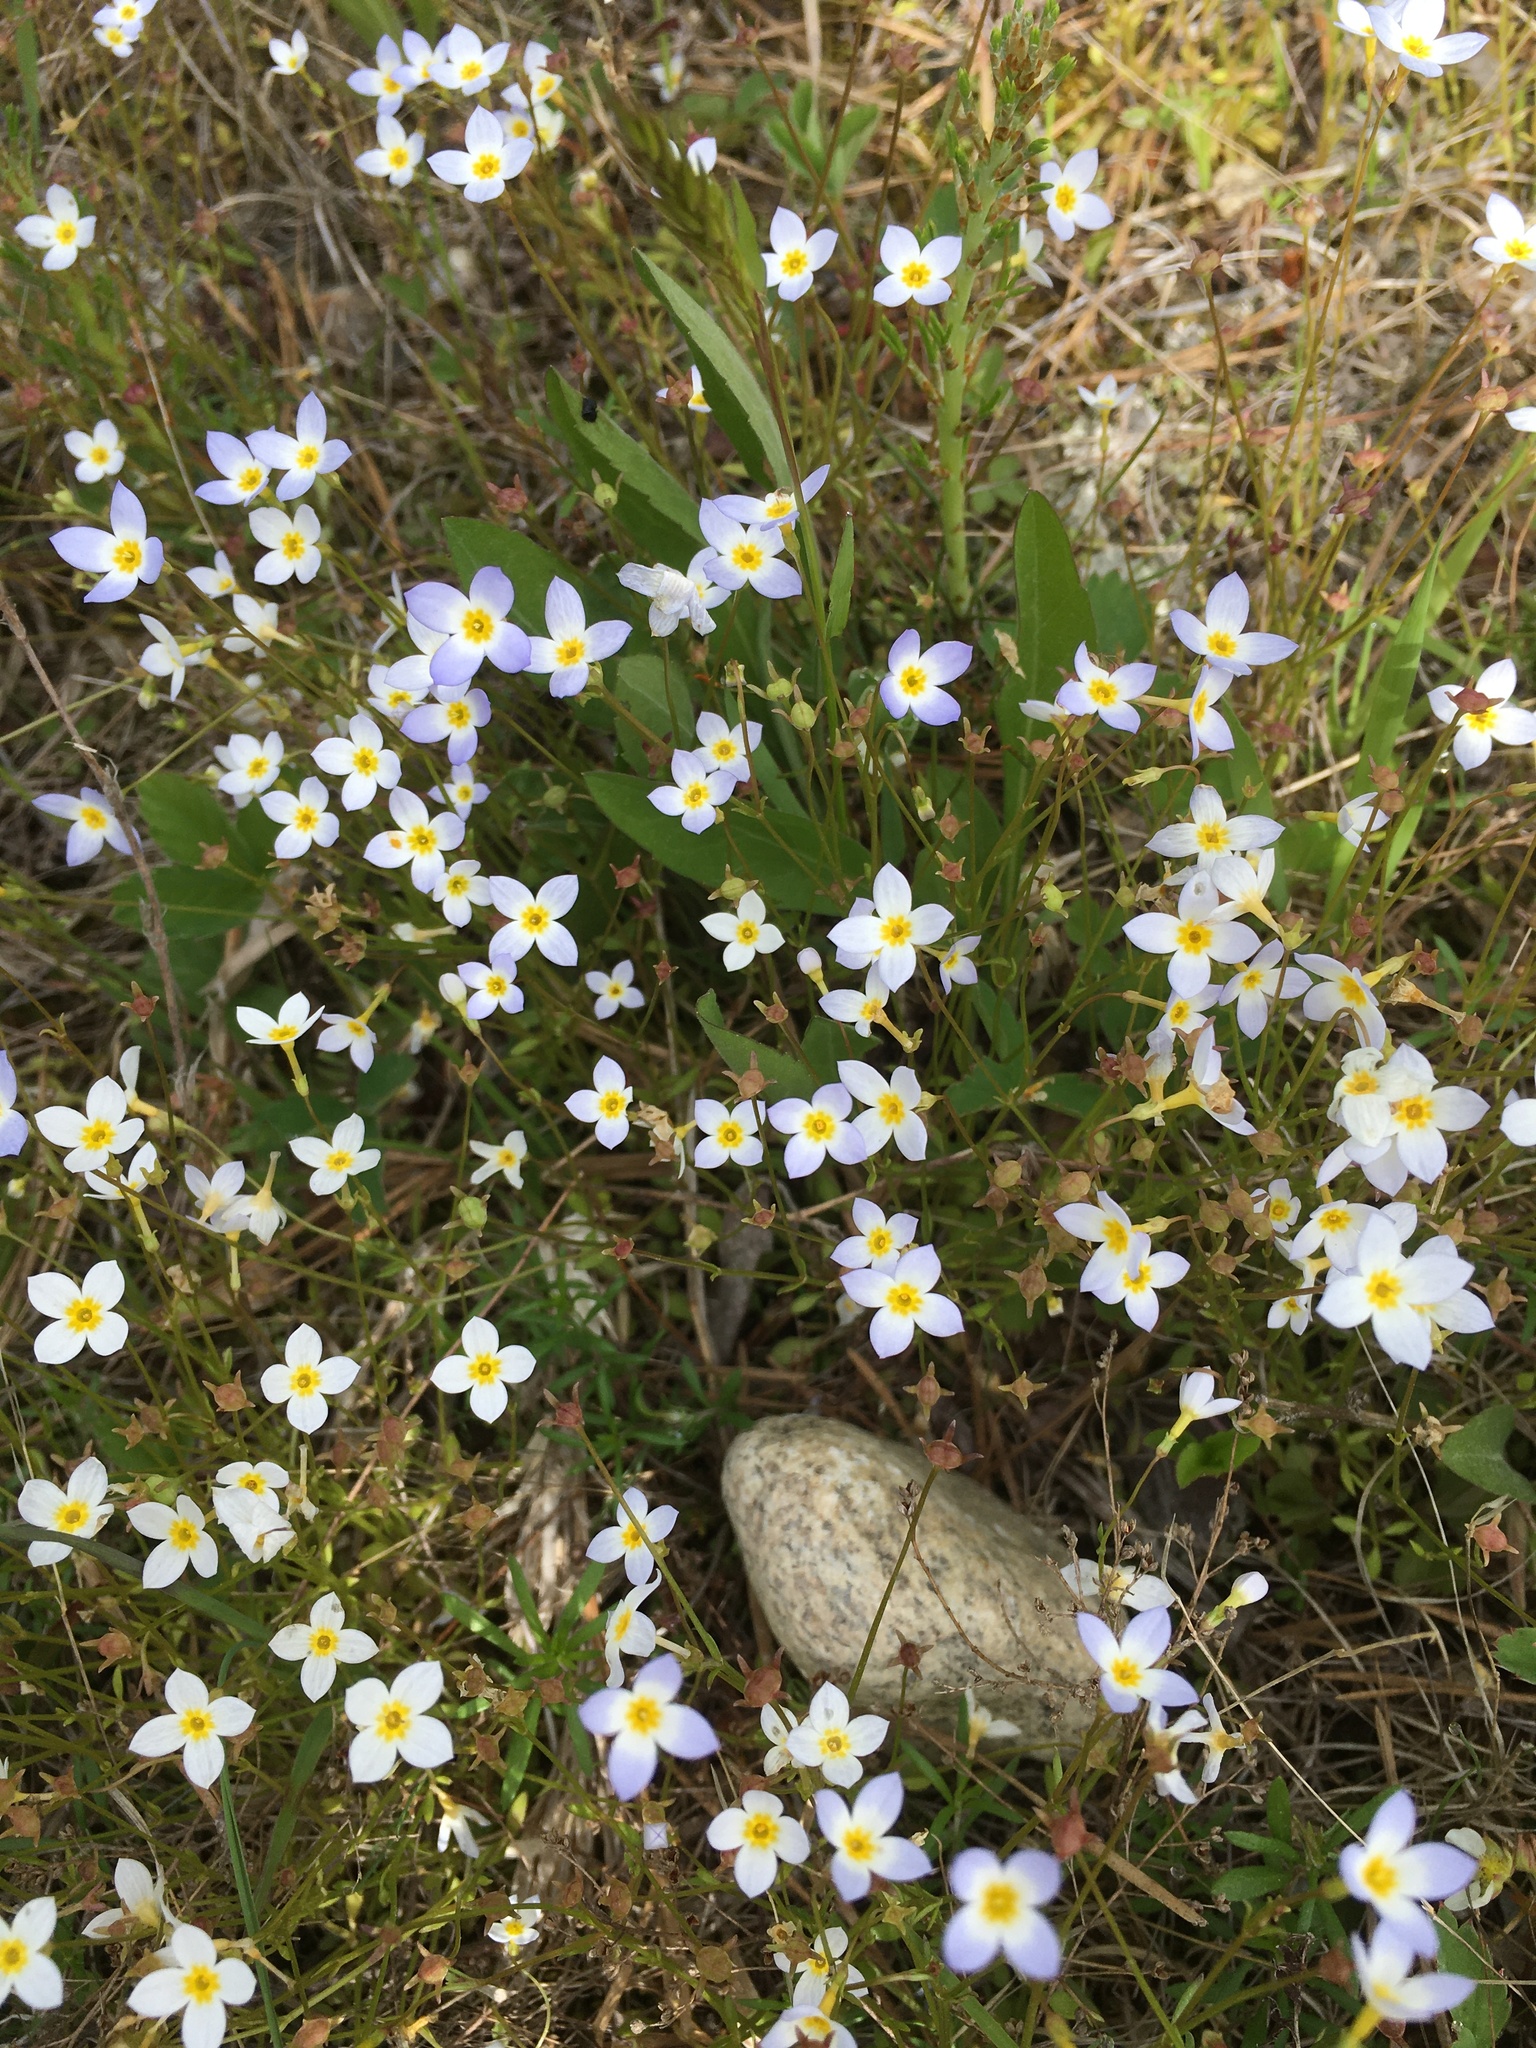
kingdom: Plantae
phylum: Tracheophyta
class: Magnoliopsida
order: Gentianales
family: Rubiaceae
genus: Houstonia
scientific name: Houstonia caerulea
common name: Bluets
